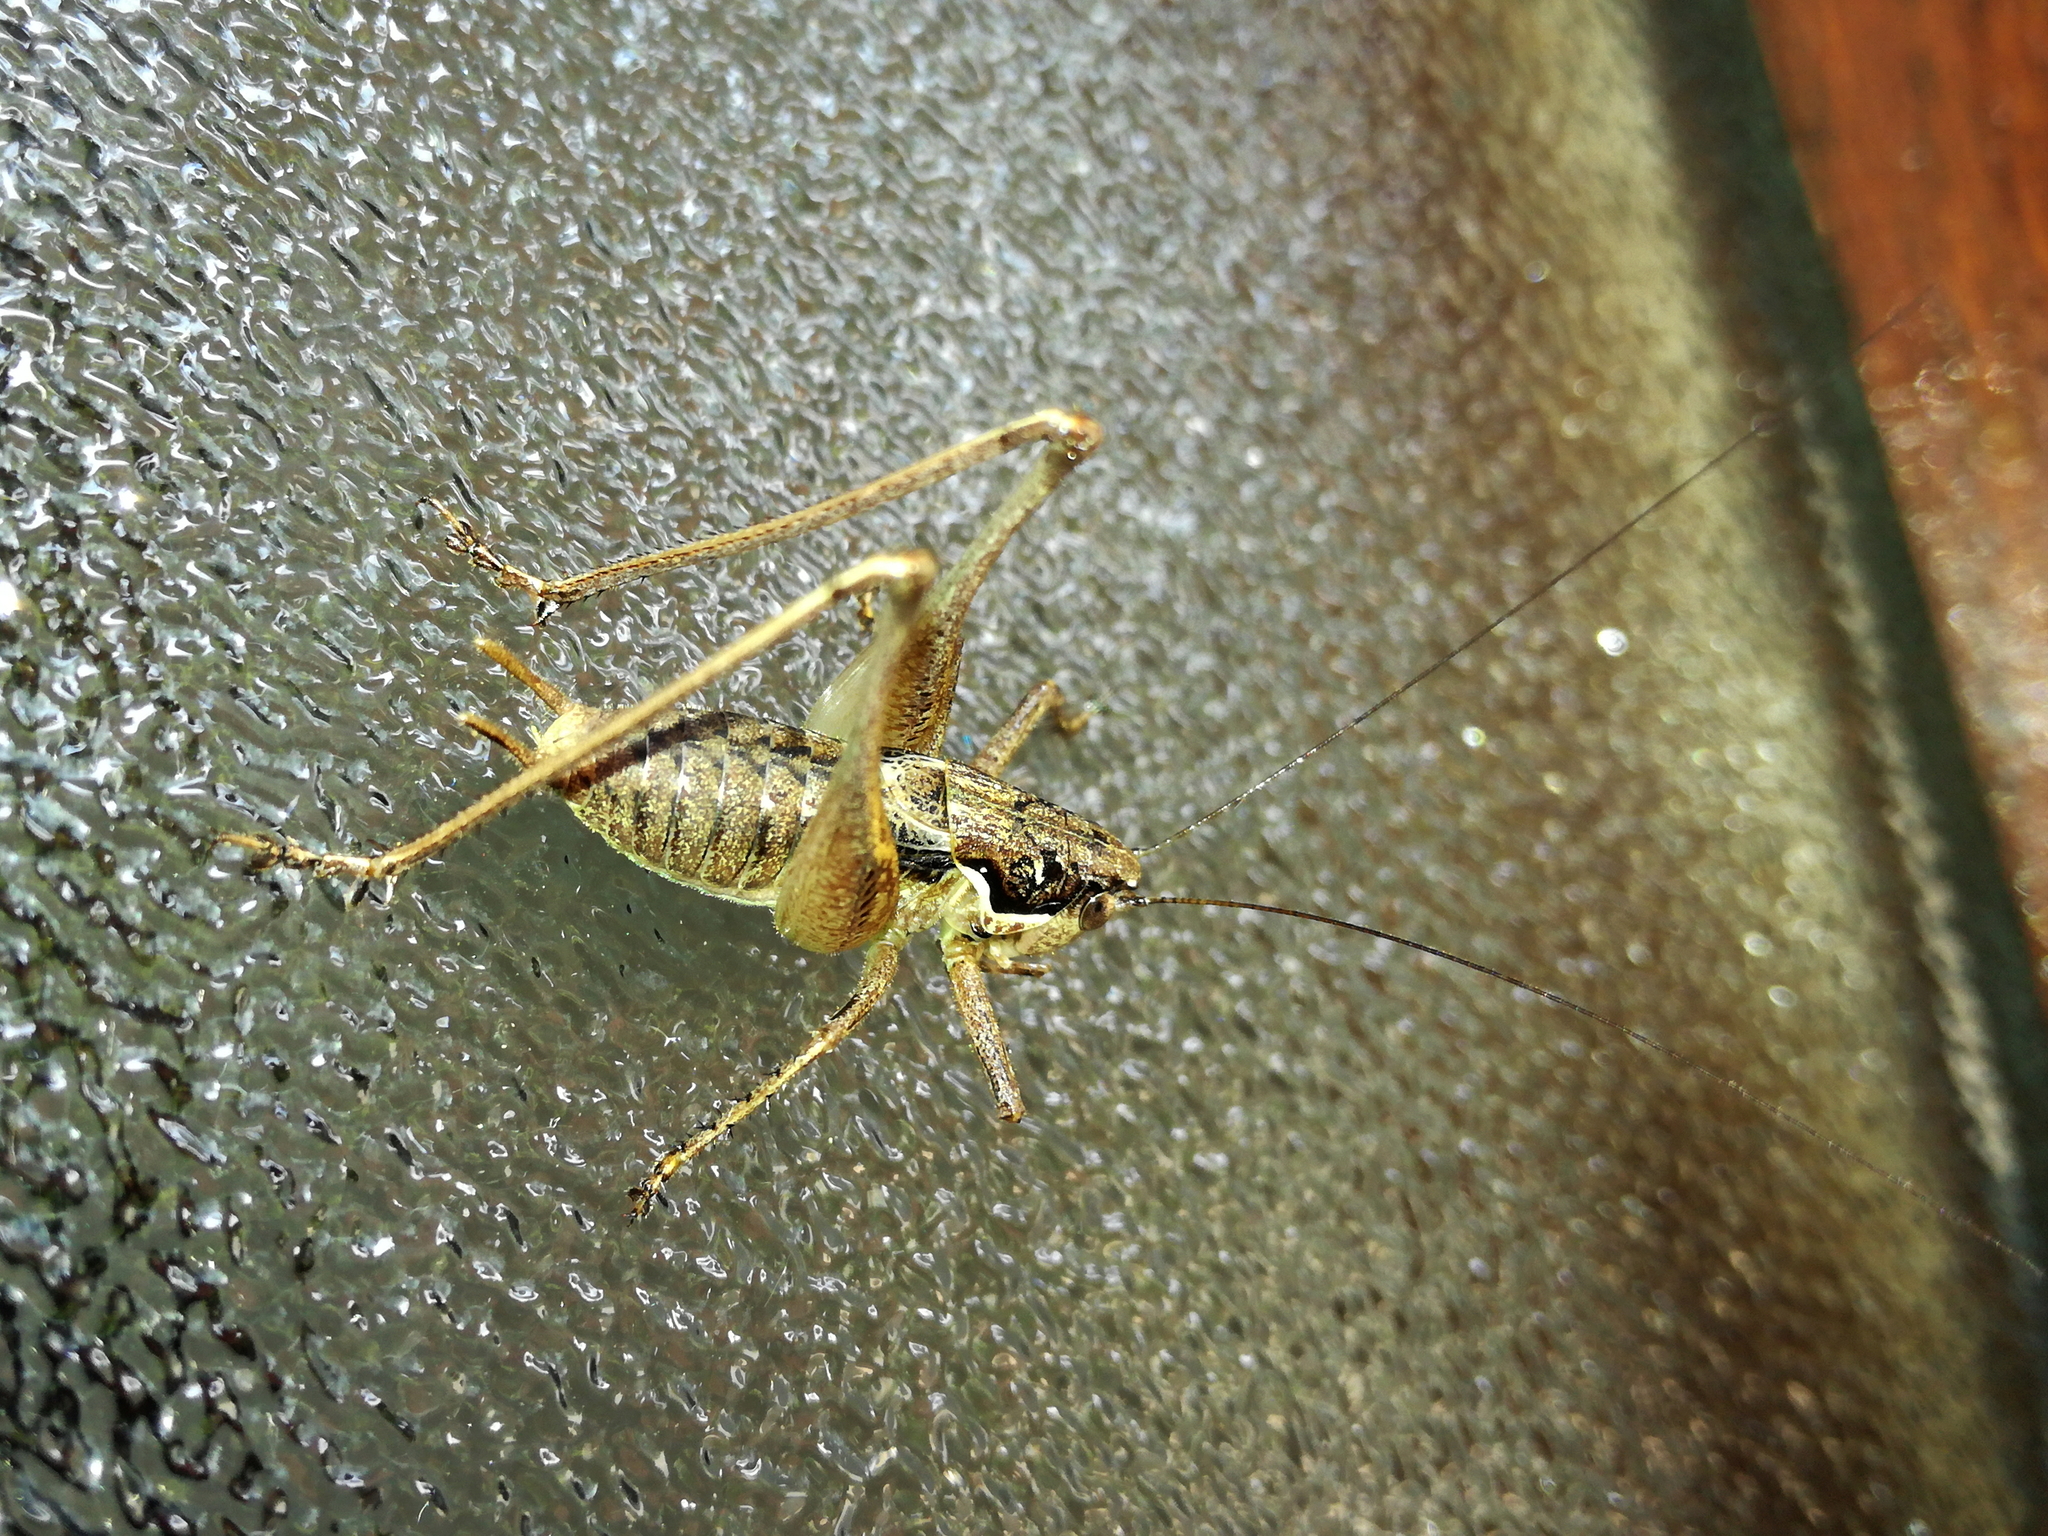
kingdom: Animalia
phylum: Arthropoda
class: Insecta
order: Orthoptera
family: Tettigoniidae
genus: Pachytrachis
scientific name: Pachytrachis gracilis
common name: Graceful bush-cricket
